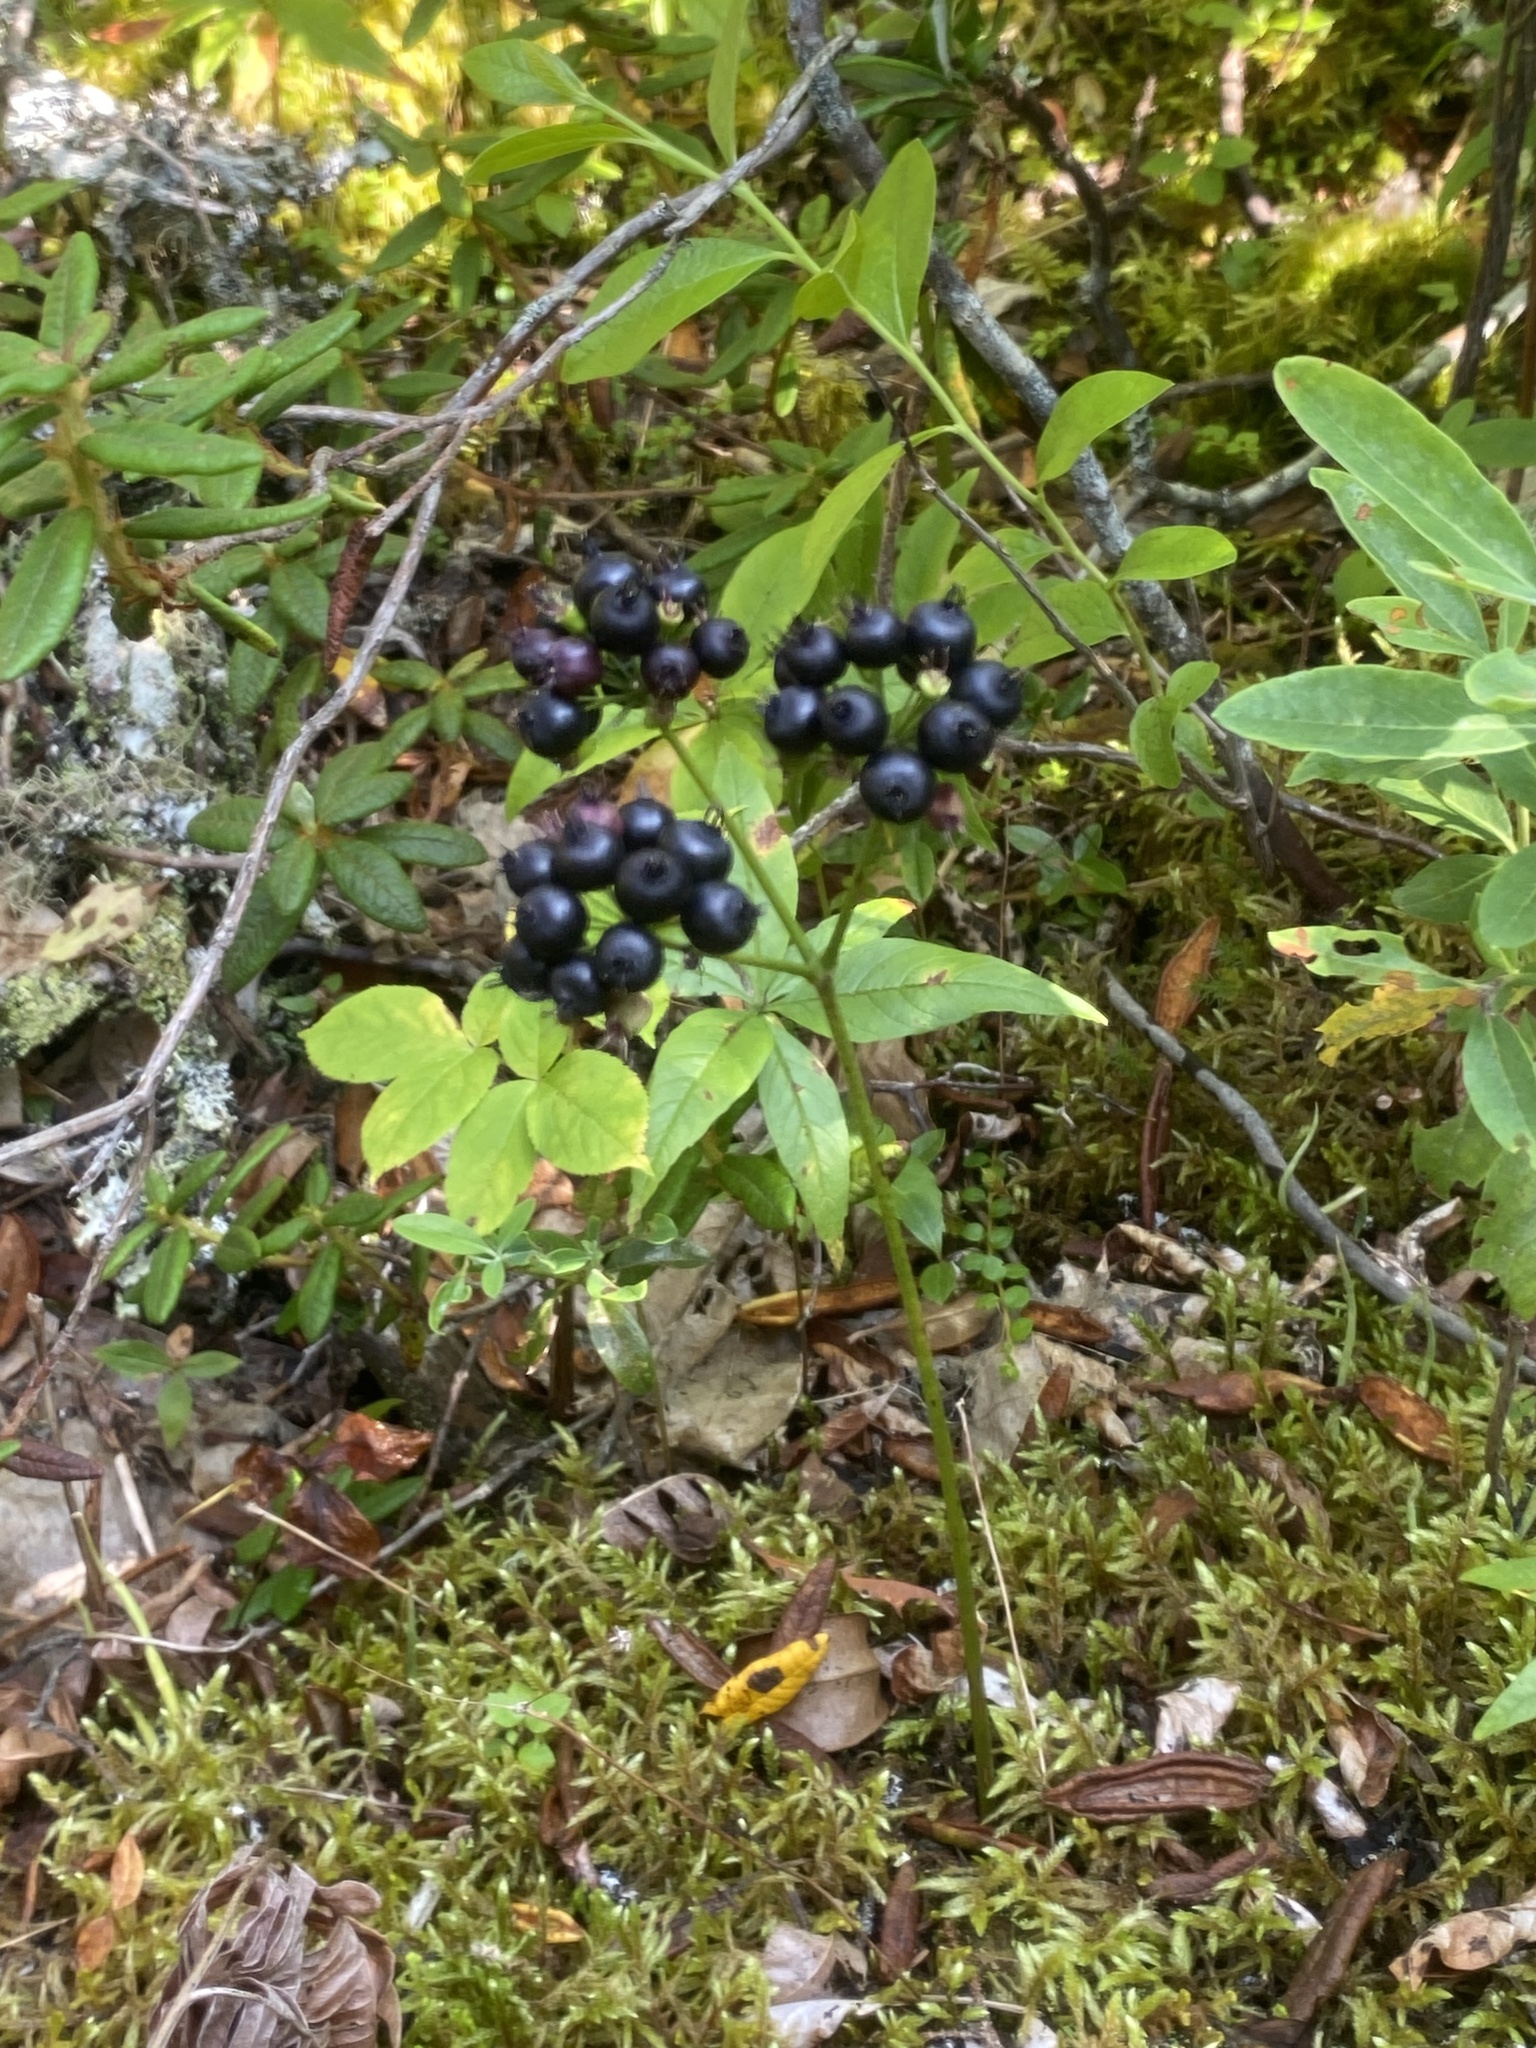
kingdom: Plantae
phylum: Tracheophyta
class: Magnoliopsida
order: Apiales
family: Araliaceae
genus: Aralia
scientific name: Aralia nudicaulis
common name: Wild sarsaparilla
